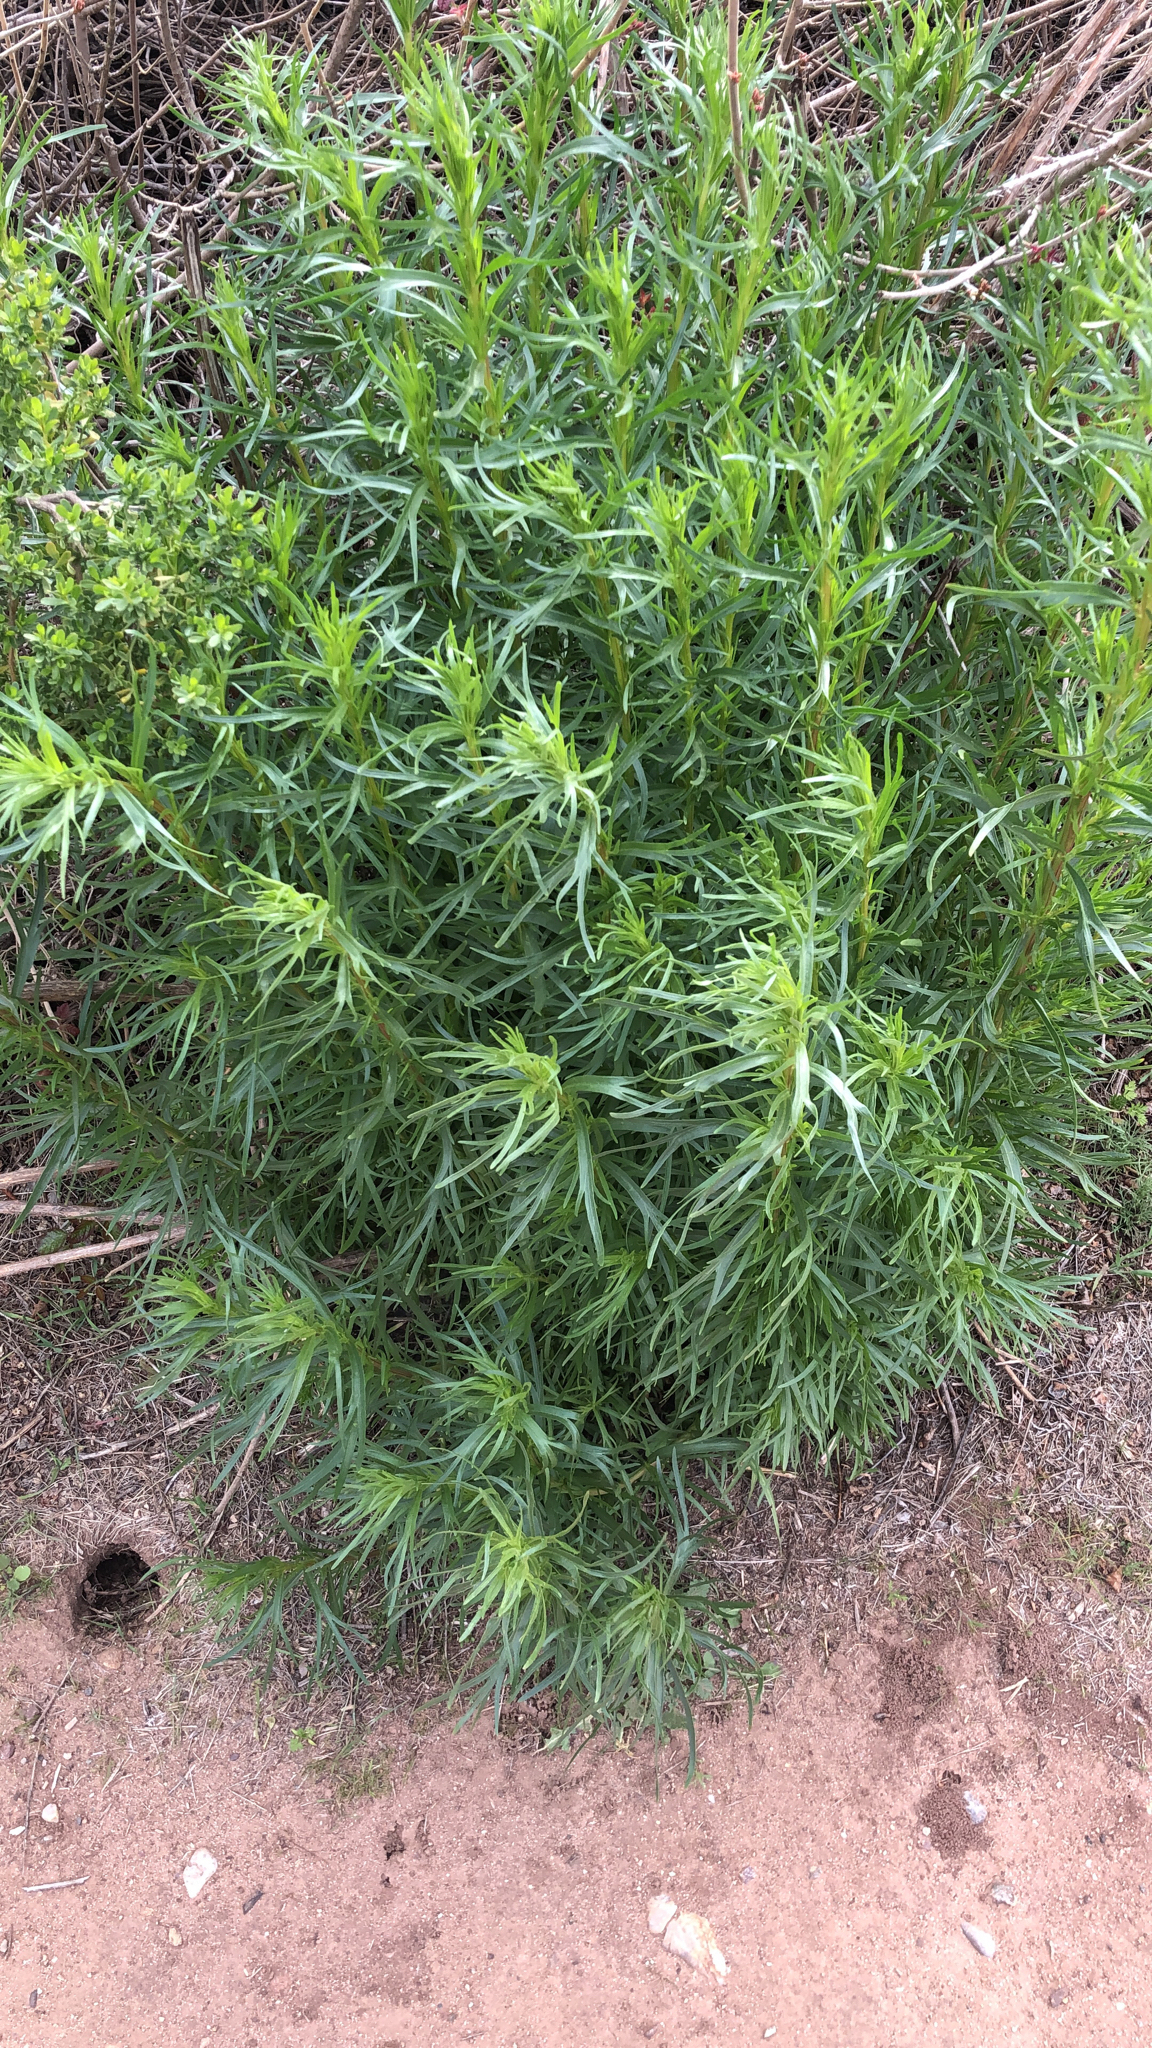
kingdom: Plantae
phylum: Tracheophyta
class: Magnoliopsida
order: Asterales
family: Asteraceae
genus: Artemisia
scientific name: Artemisia dracunculus
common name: Tarragon
